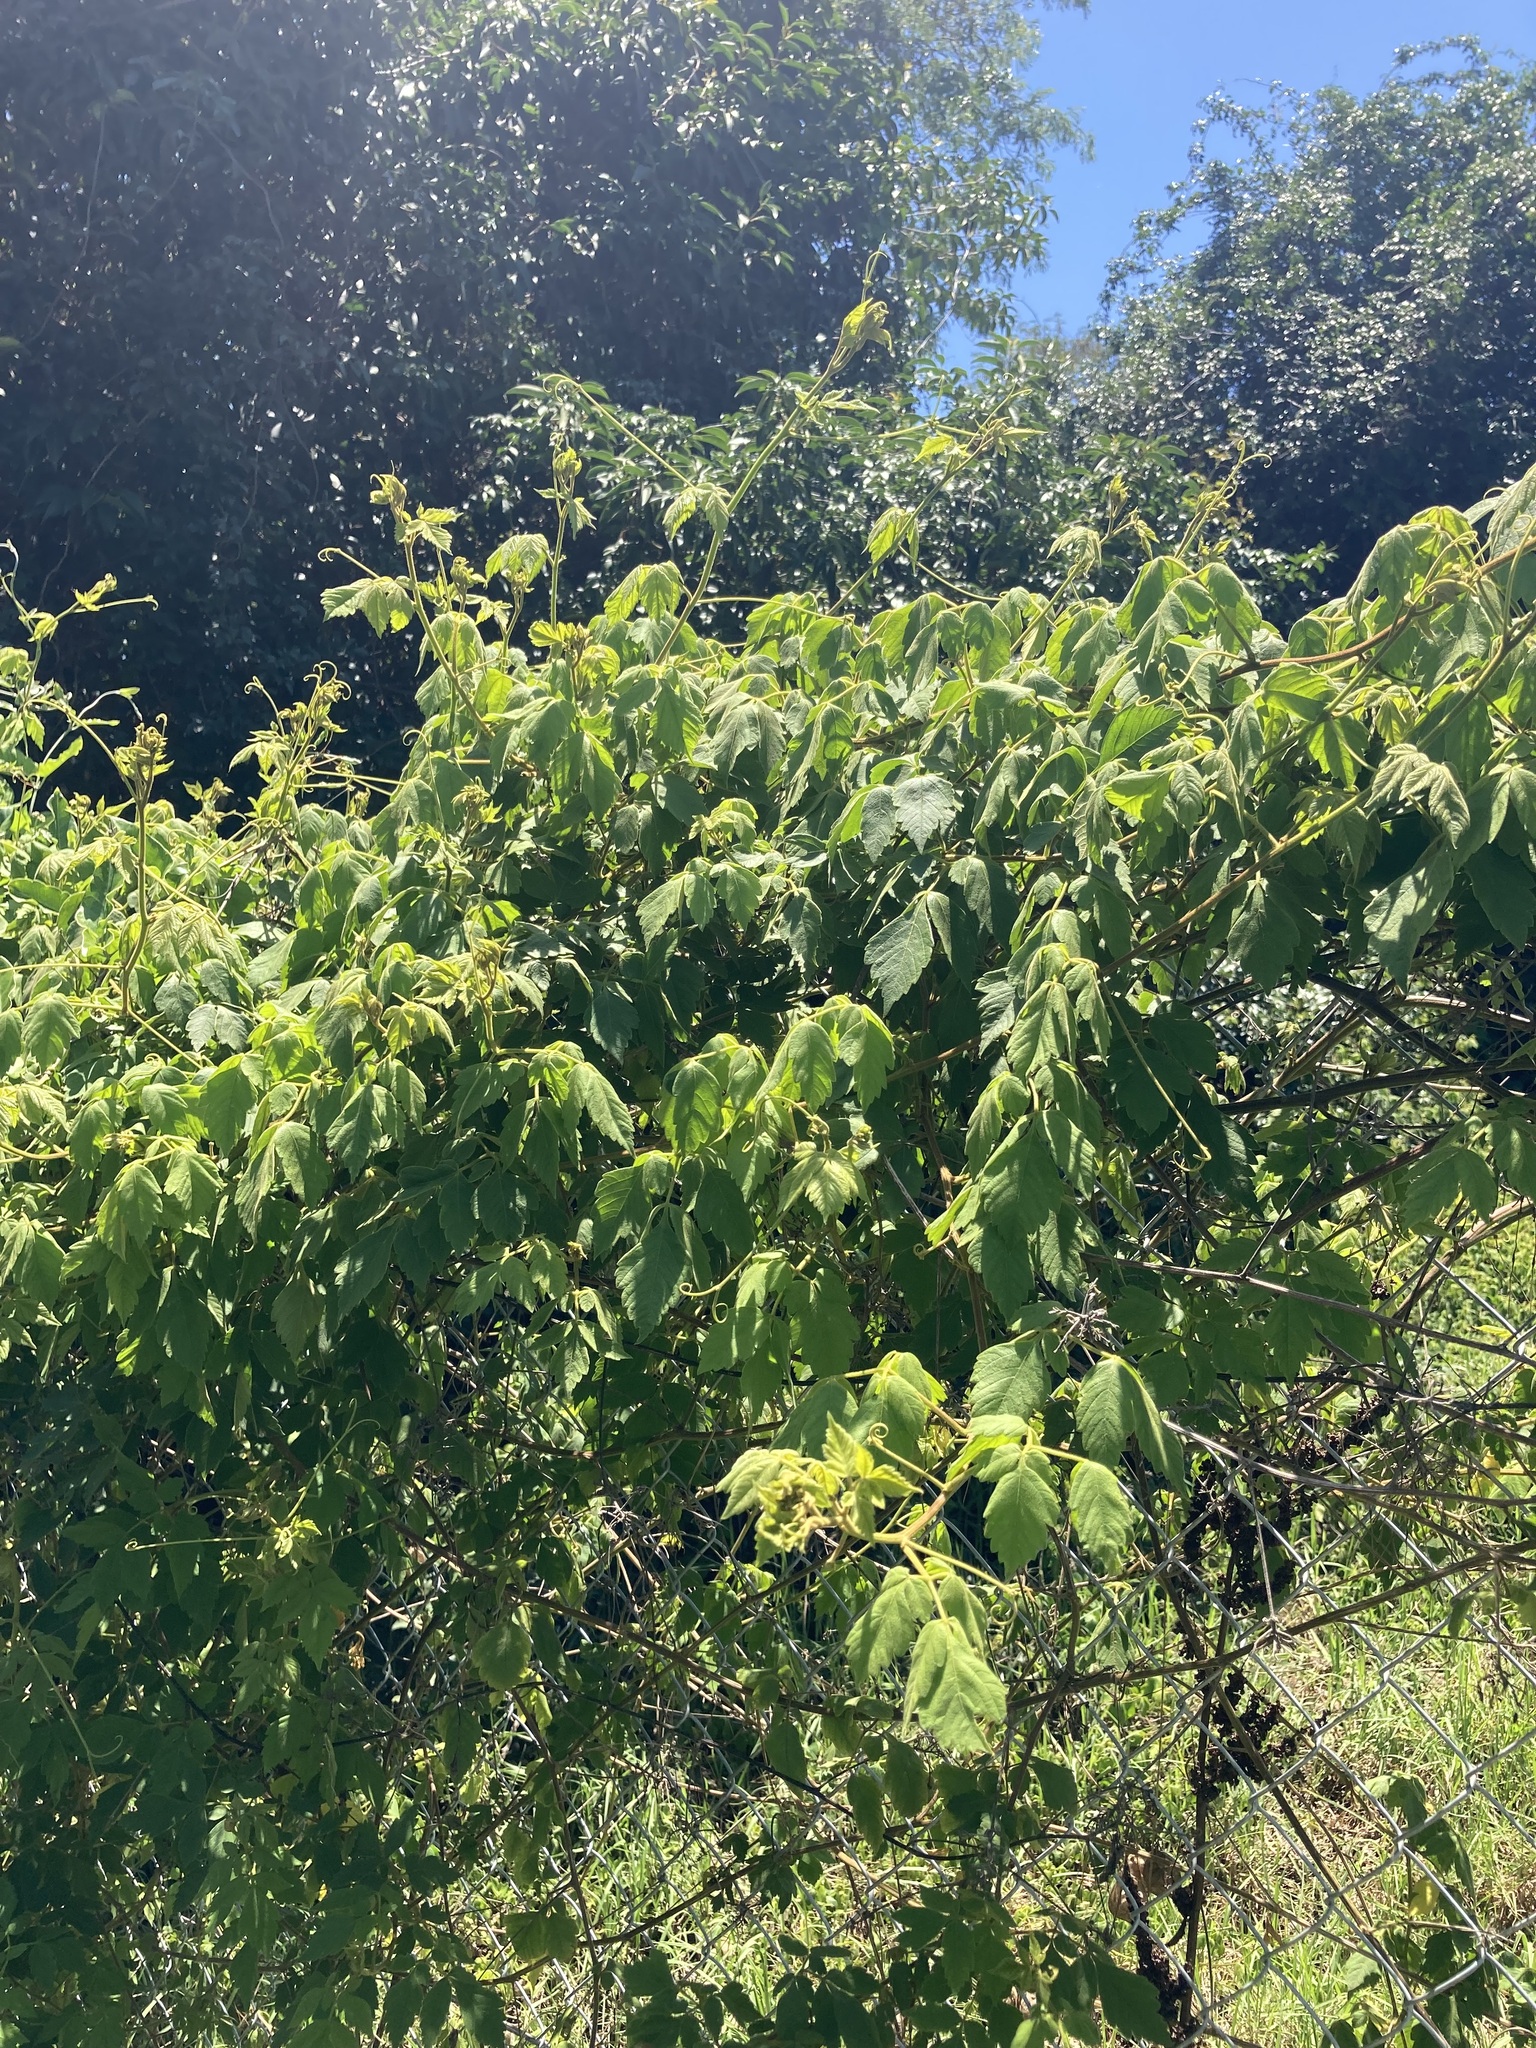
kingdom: Plantae
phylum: Tracheophyta
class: Magnoliopsida
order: Sapindales
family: Sapindaceae
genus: Cardiospermum
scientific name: Cardiospermum grandiflorum
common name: Balloon vine
